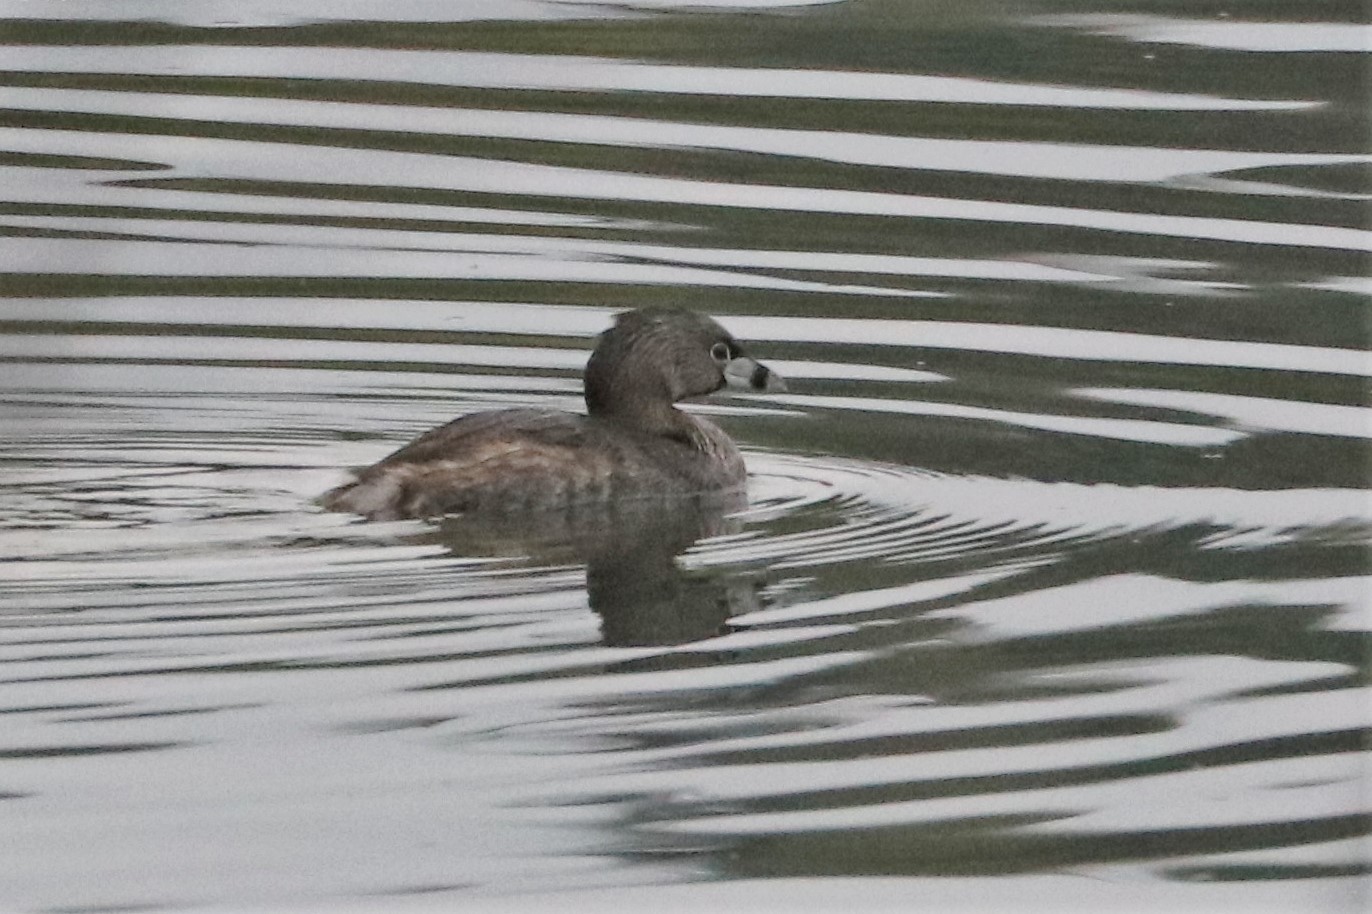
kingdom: Animalia
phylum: Chordata
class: Aves
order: Podicipediformes
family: Podicipedidae
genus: Podilymbus
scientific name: Podilymbus podiceps
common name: Pied-billed grebe
